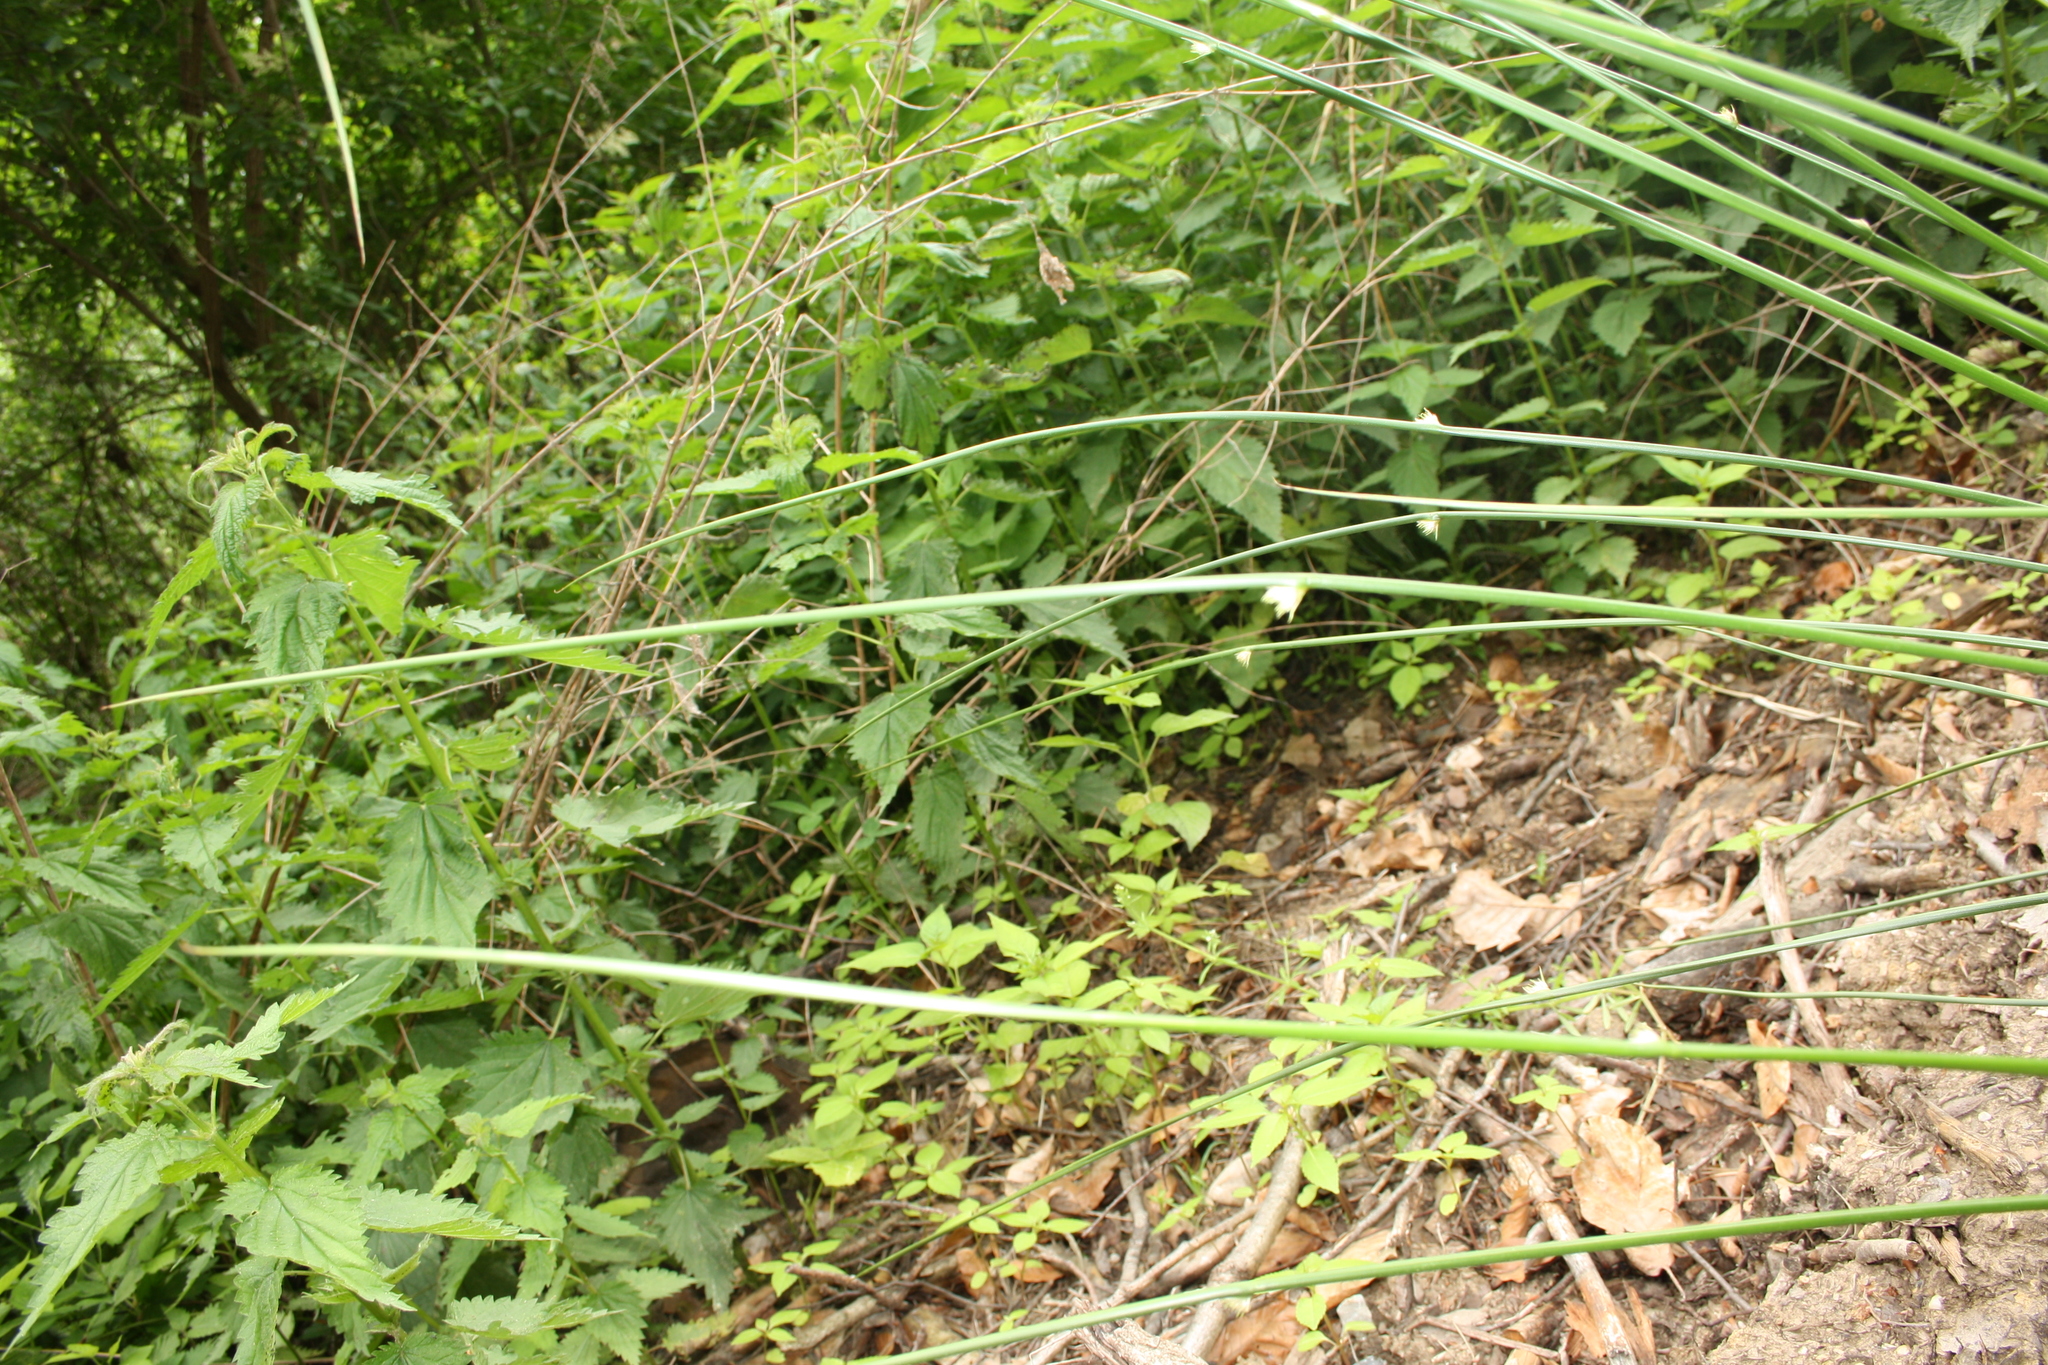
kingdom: Plantae
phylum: Tracheophyta
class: Liliopsida
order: Poales
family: Juncaceae
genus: Juncus
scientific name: Juncus effusus
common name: Soft rush
